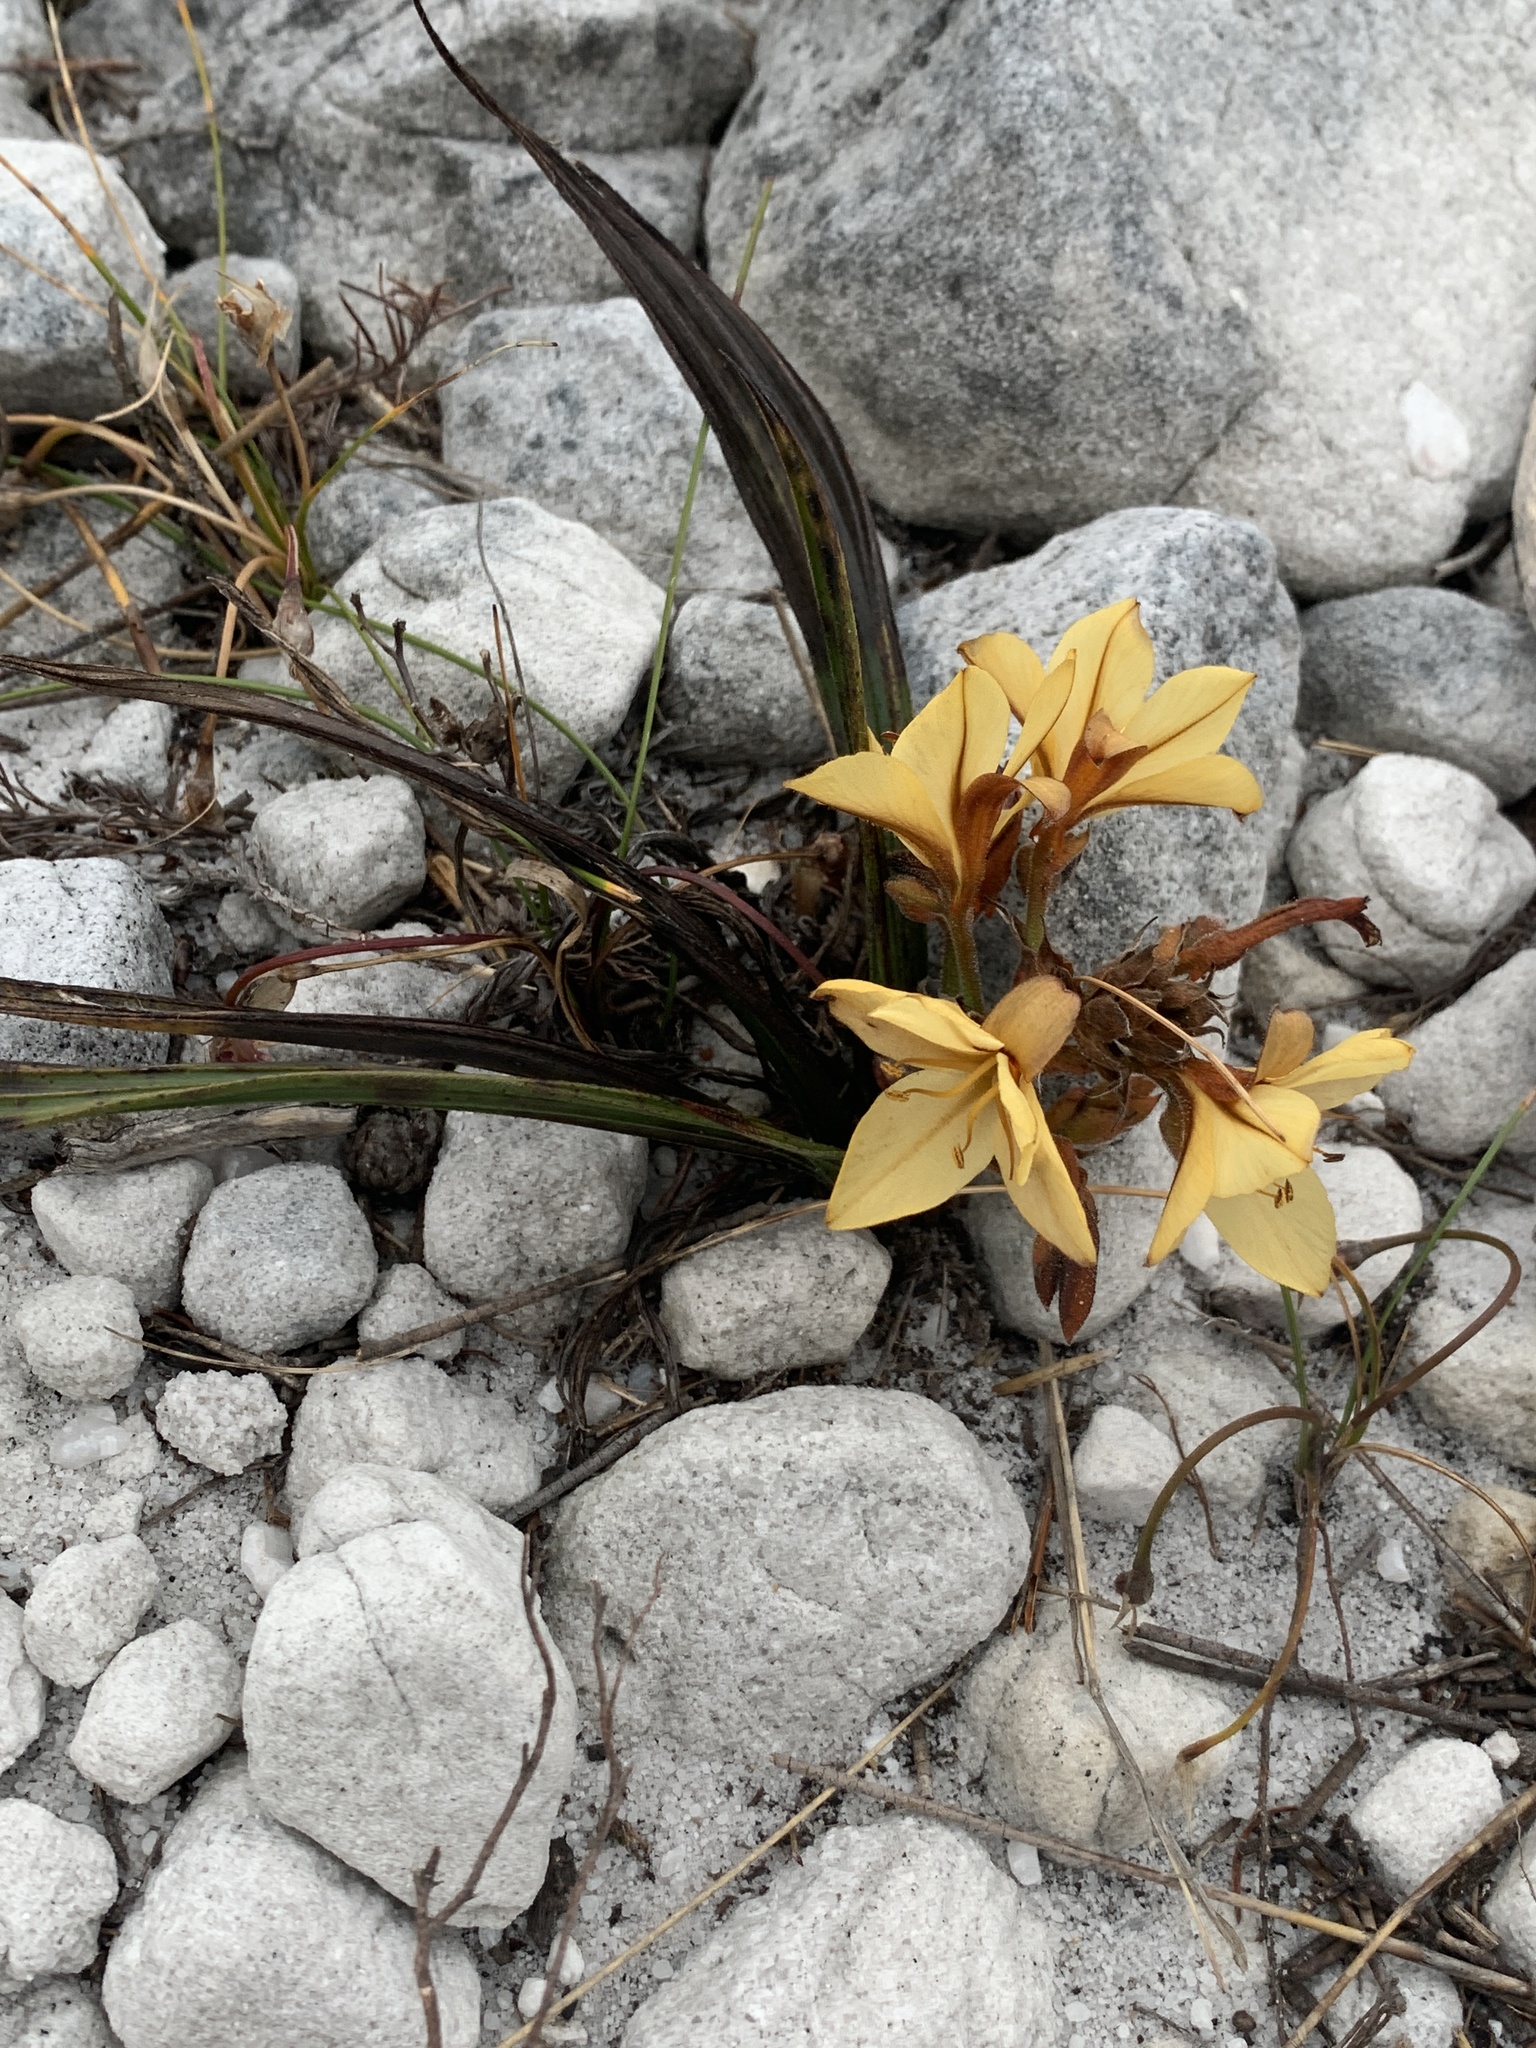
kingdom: Plantae
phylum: Tracheophyta
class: Liliopsida
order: Commelinales
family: Haemodoraceae
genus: Wachendorfia
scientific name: Wachendorfia paniculata
